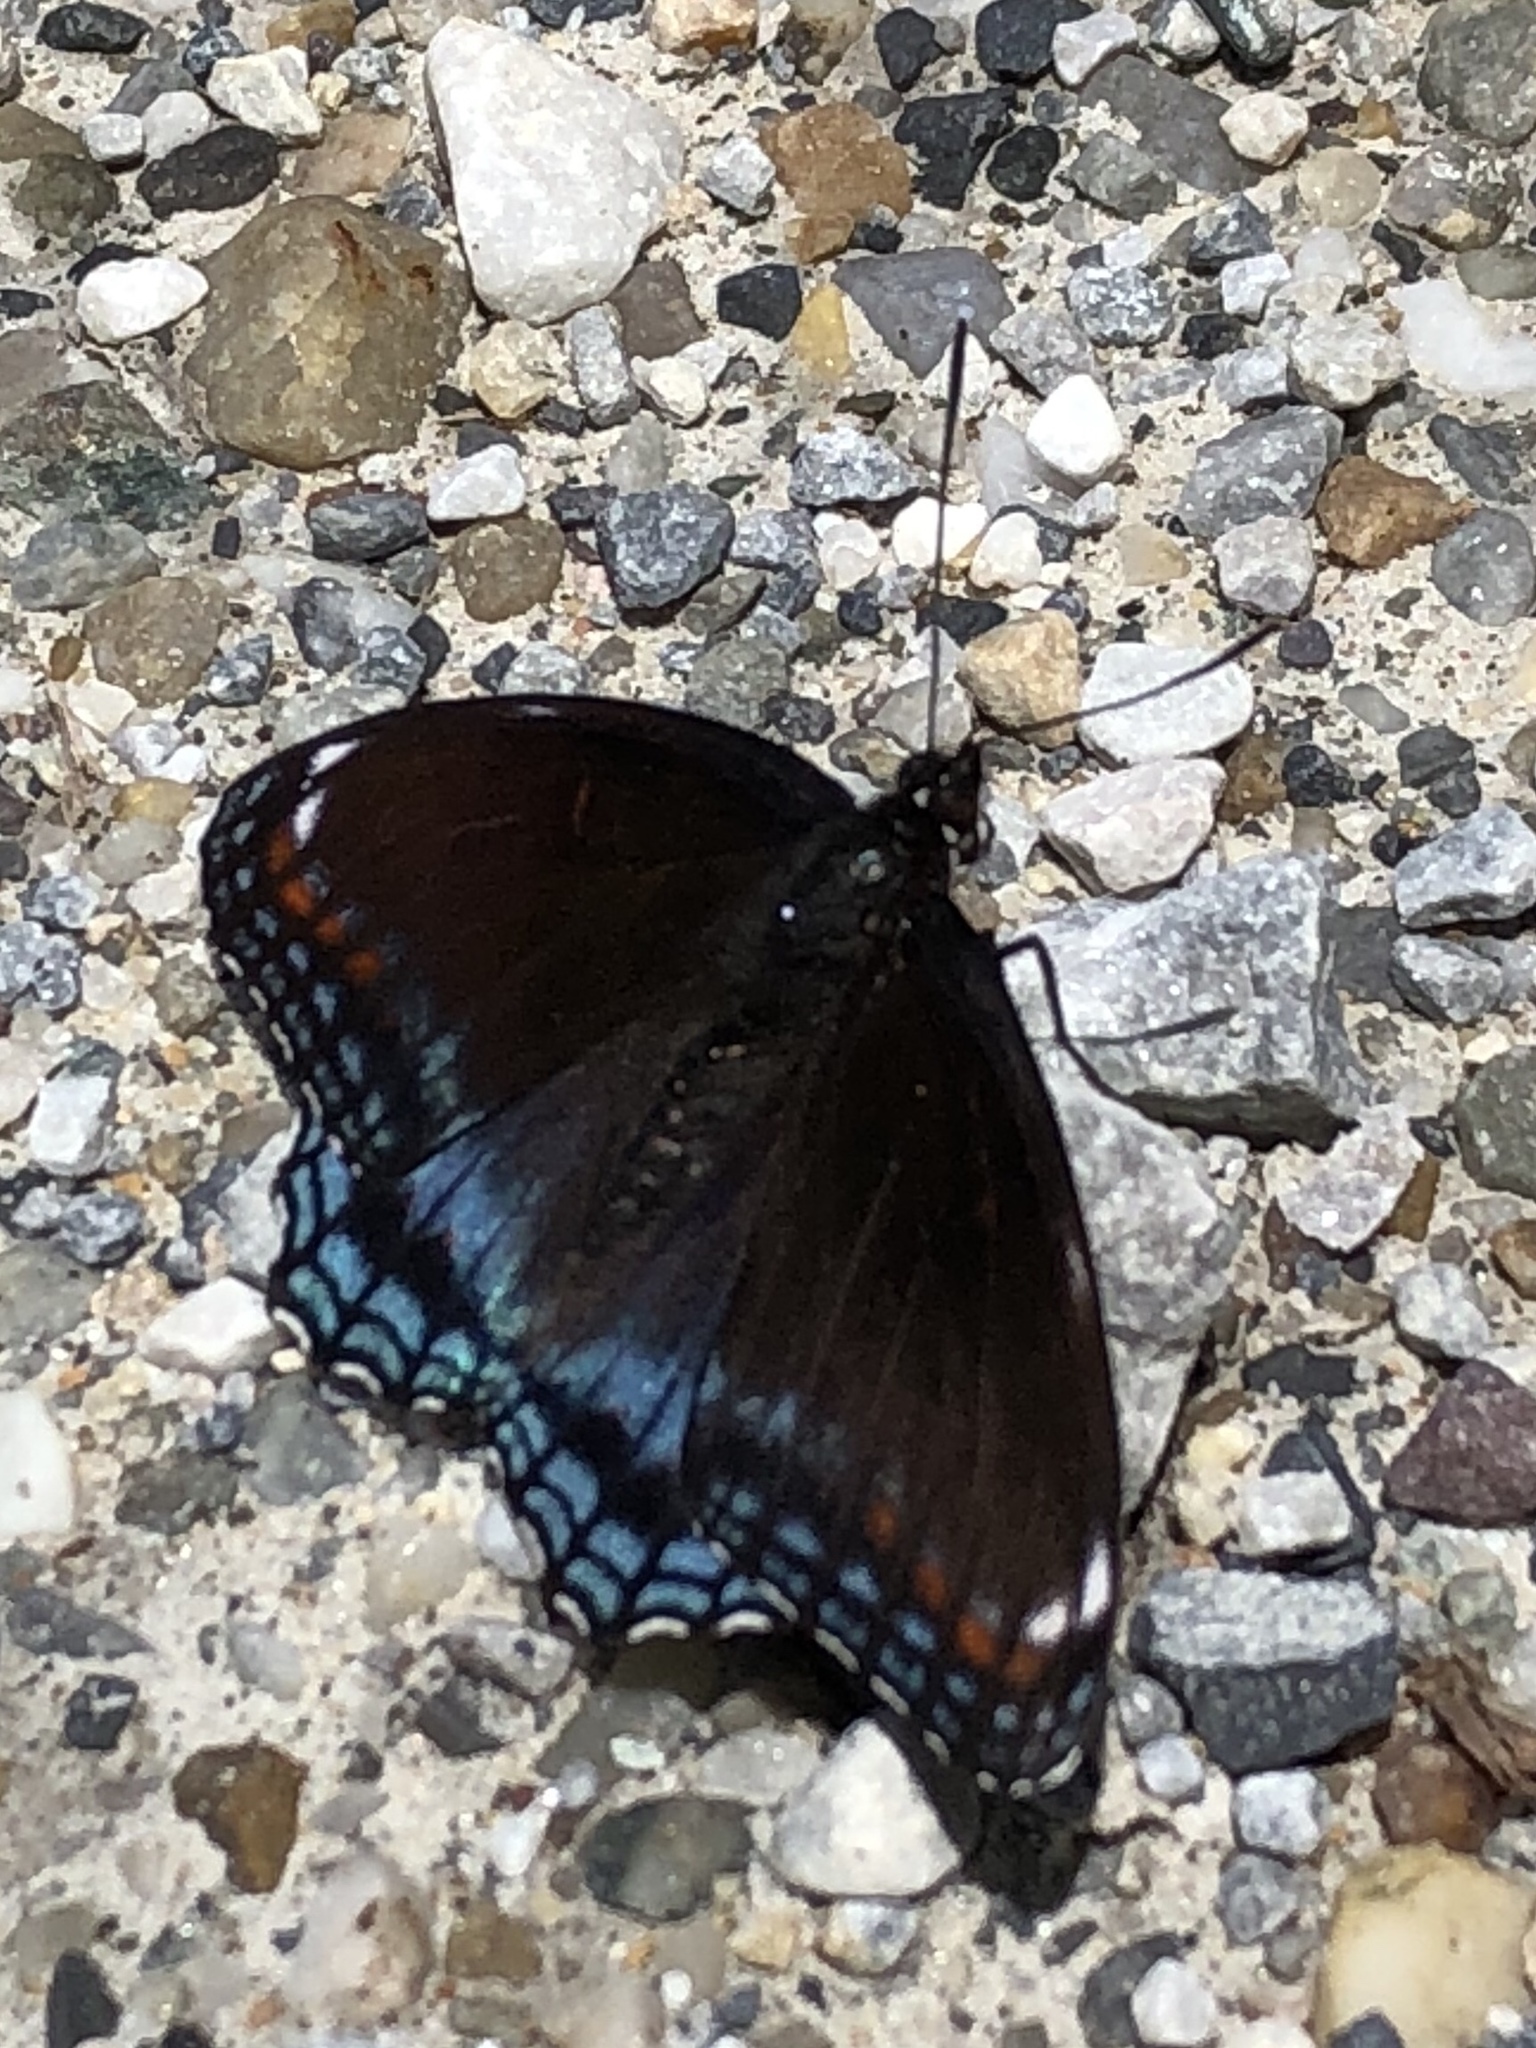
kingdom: Animalia
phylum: Arthropoda
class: Insecta
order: Lepidoptera
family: Nymphalidae
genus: Limenitis
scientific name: Limenitis astyanax
